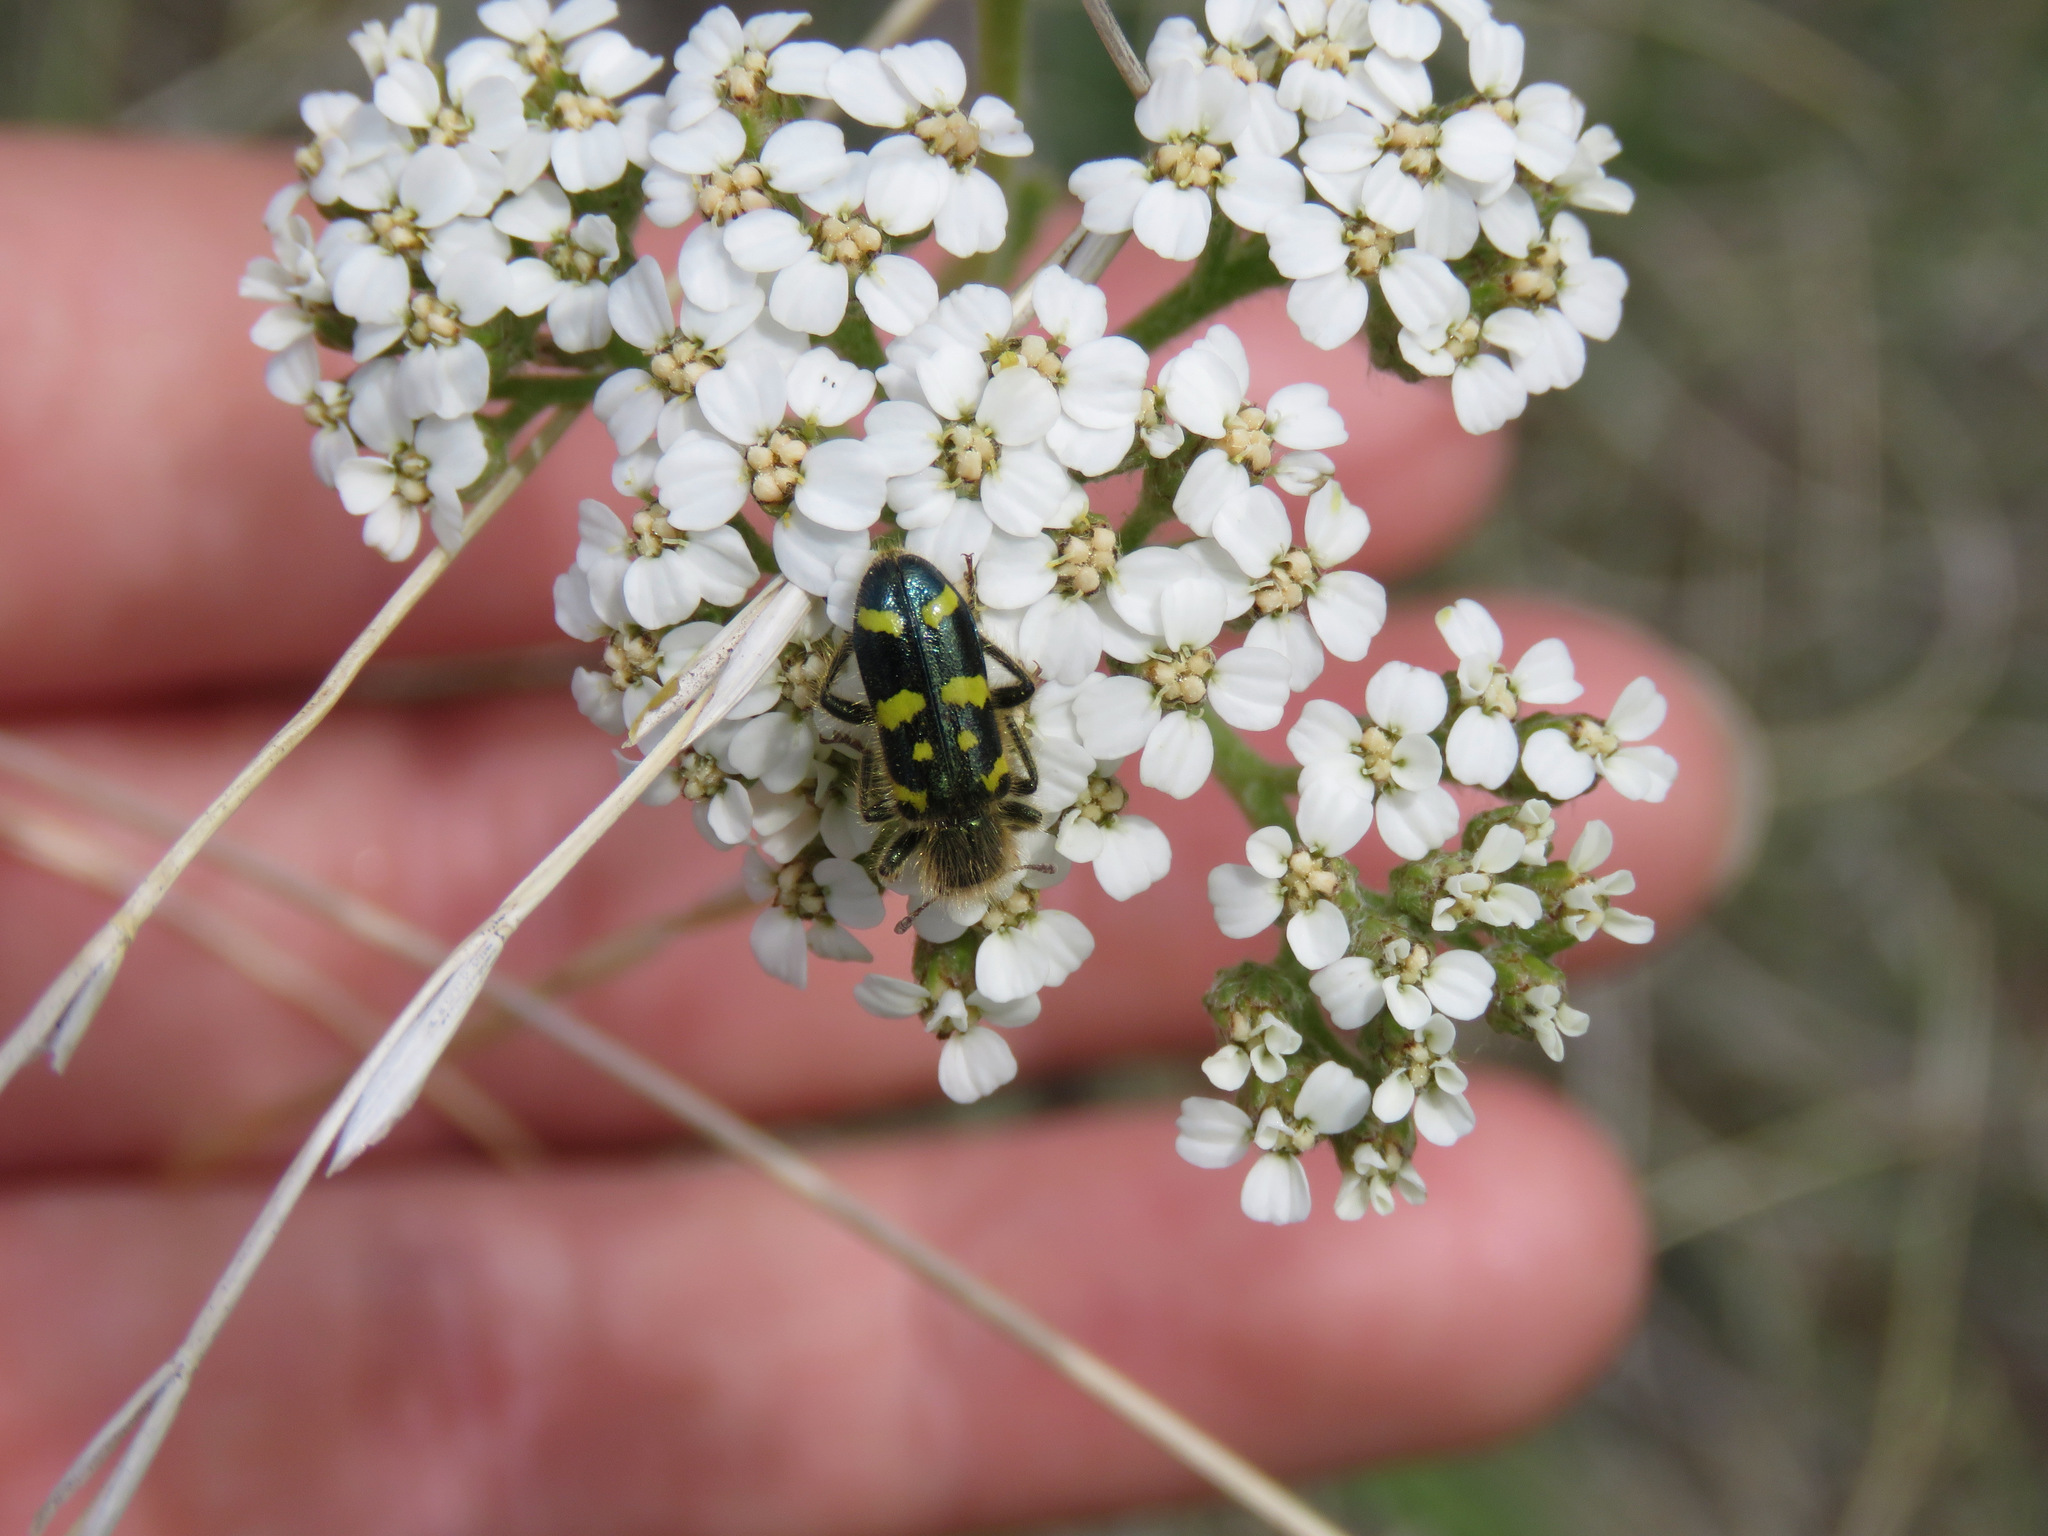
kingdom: Animalia
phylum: Arthropoda
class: Insecta
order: Coleoptera
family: Cleridae
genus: Trichodes
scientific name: Trichodes ornatus
